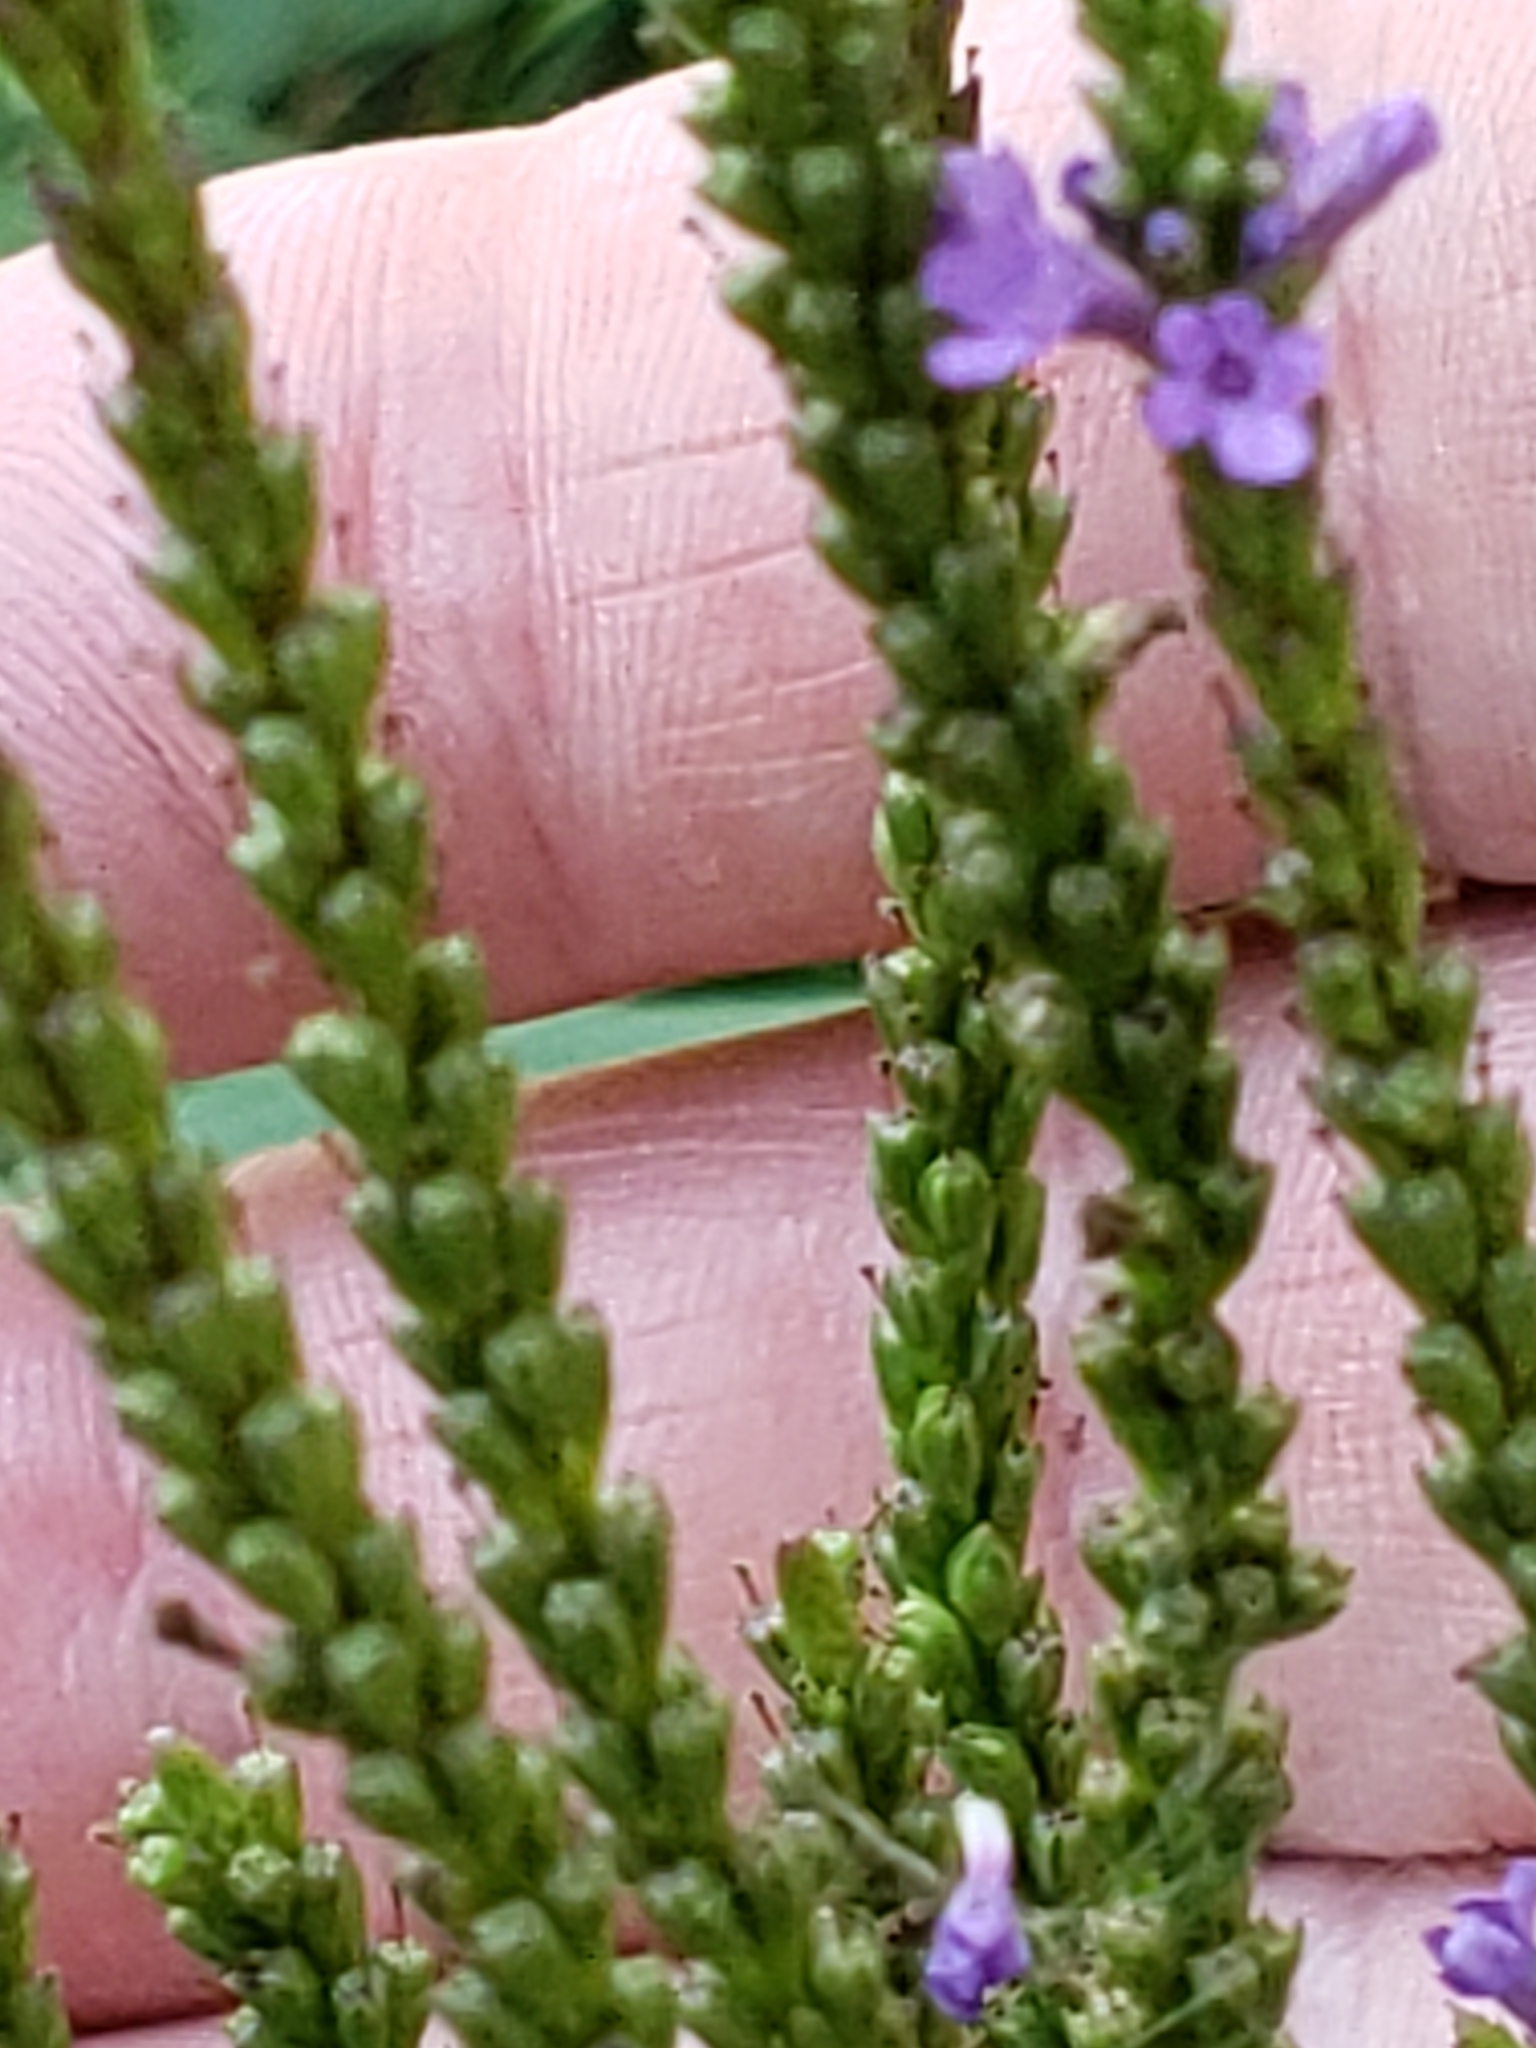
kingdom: Plantae
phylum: Tracheophyta
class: Magnoliopsida
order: Lamiales
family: Verbenaceae
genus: Verbena
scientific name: Verbena hastata
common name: American blue vervain
